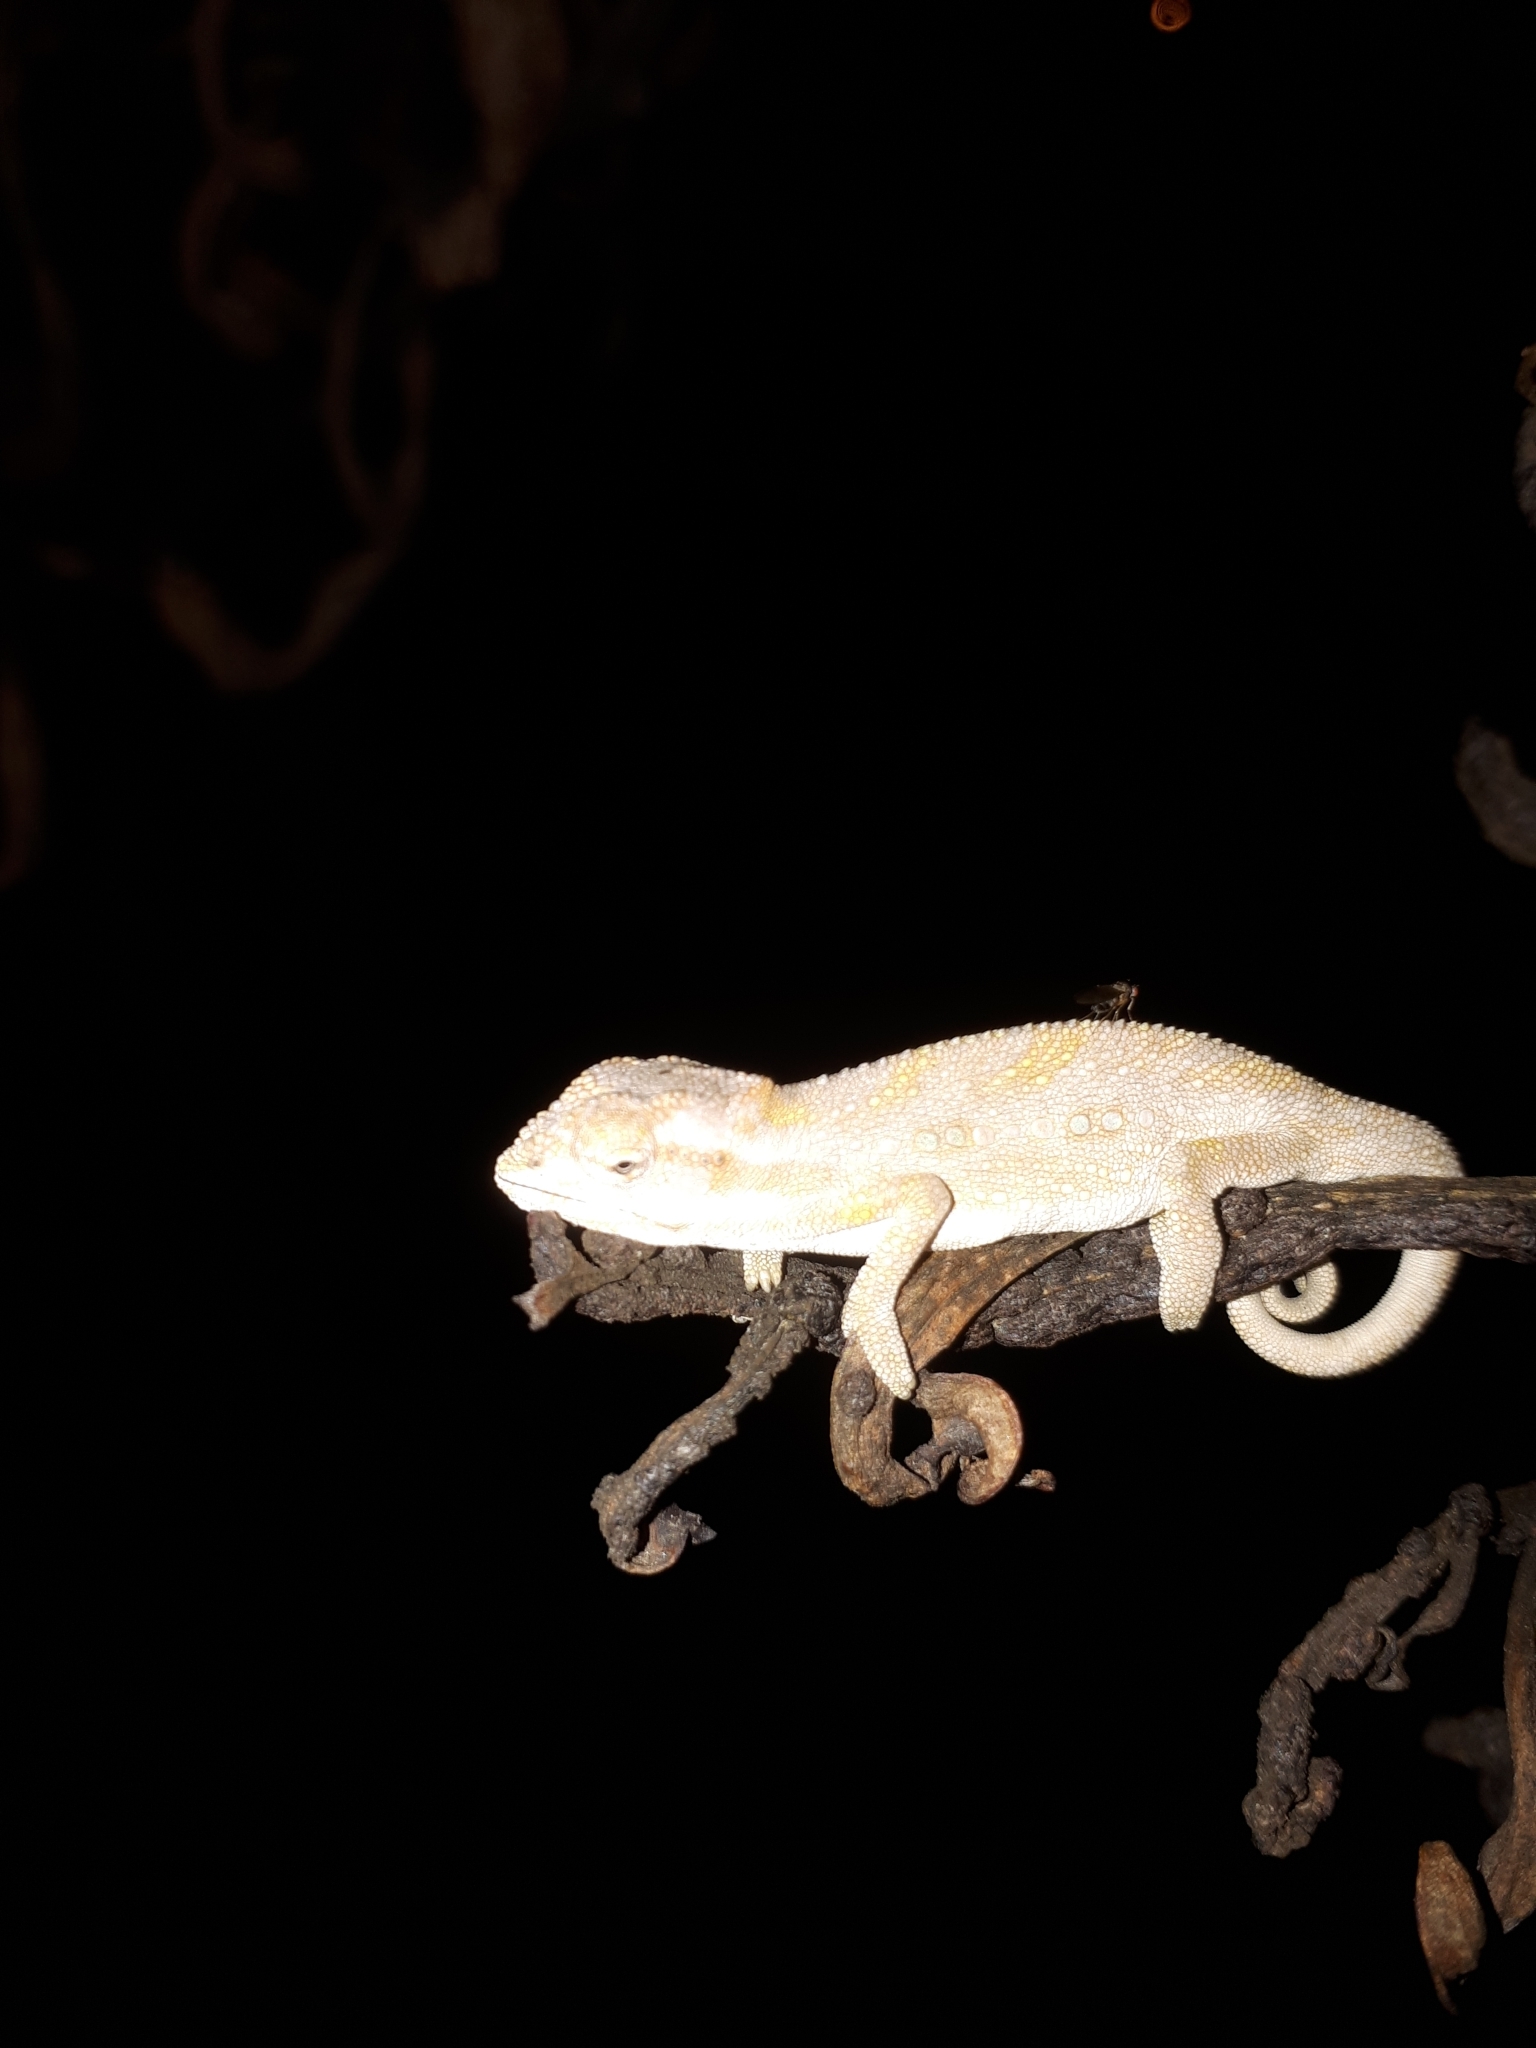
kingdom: Animalia
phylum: Chordata
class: Squamata
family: Chamaeleonidae
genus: Bradypodion
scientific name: Bradypodion pumilum
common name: Cape dwarf chameleon
